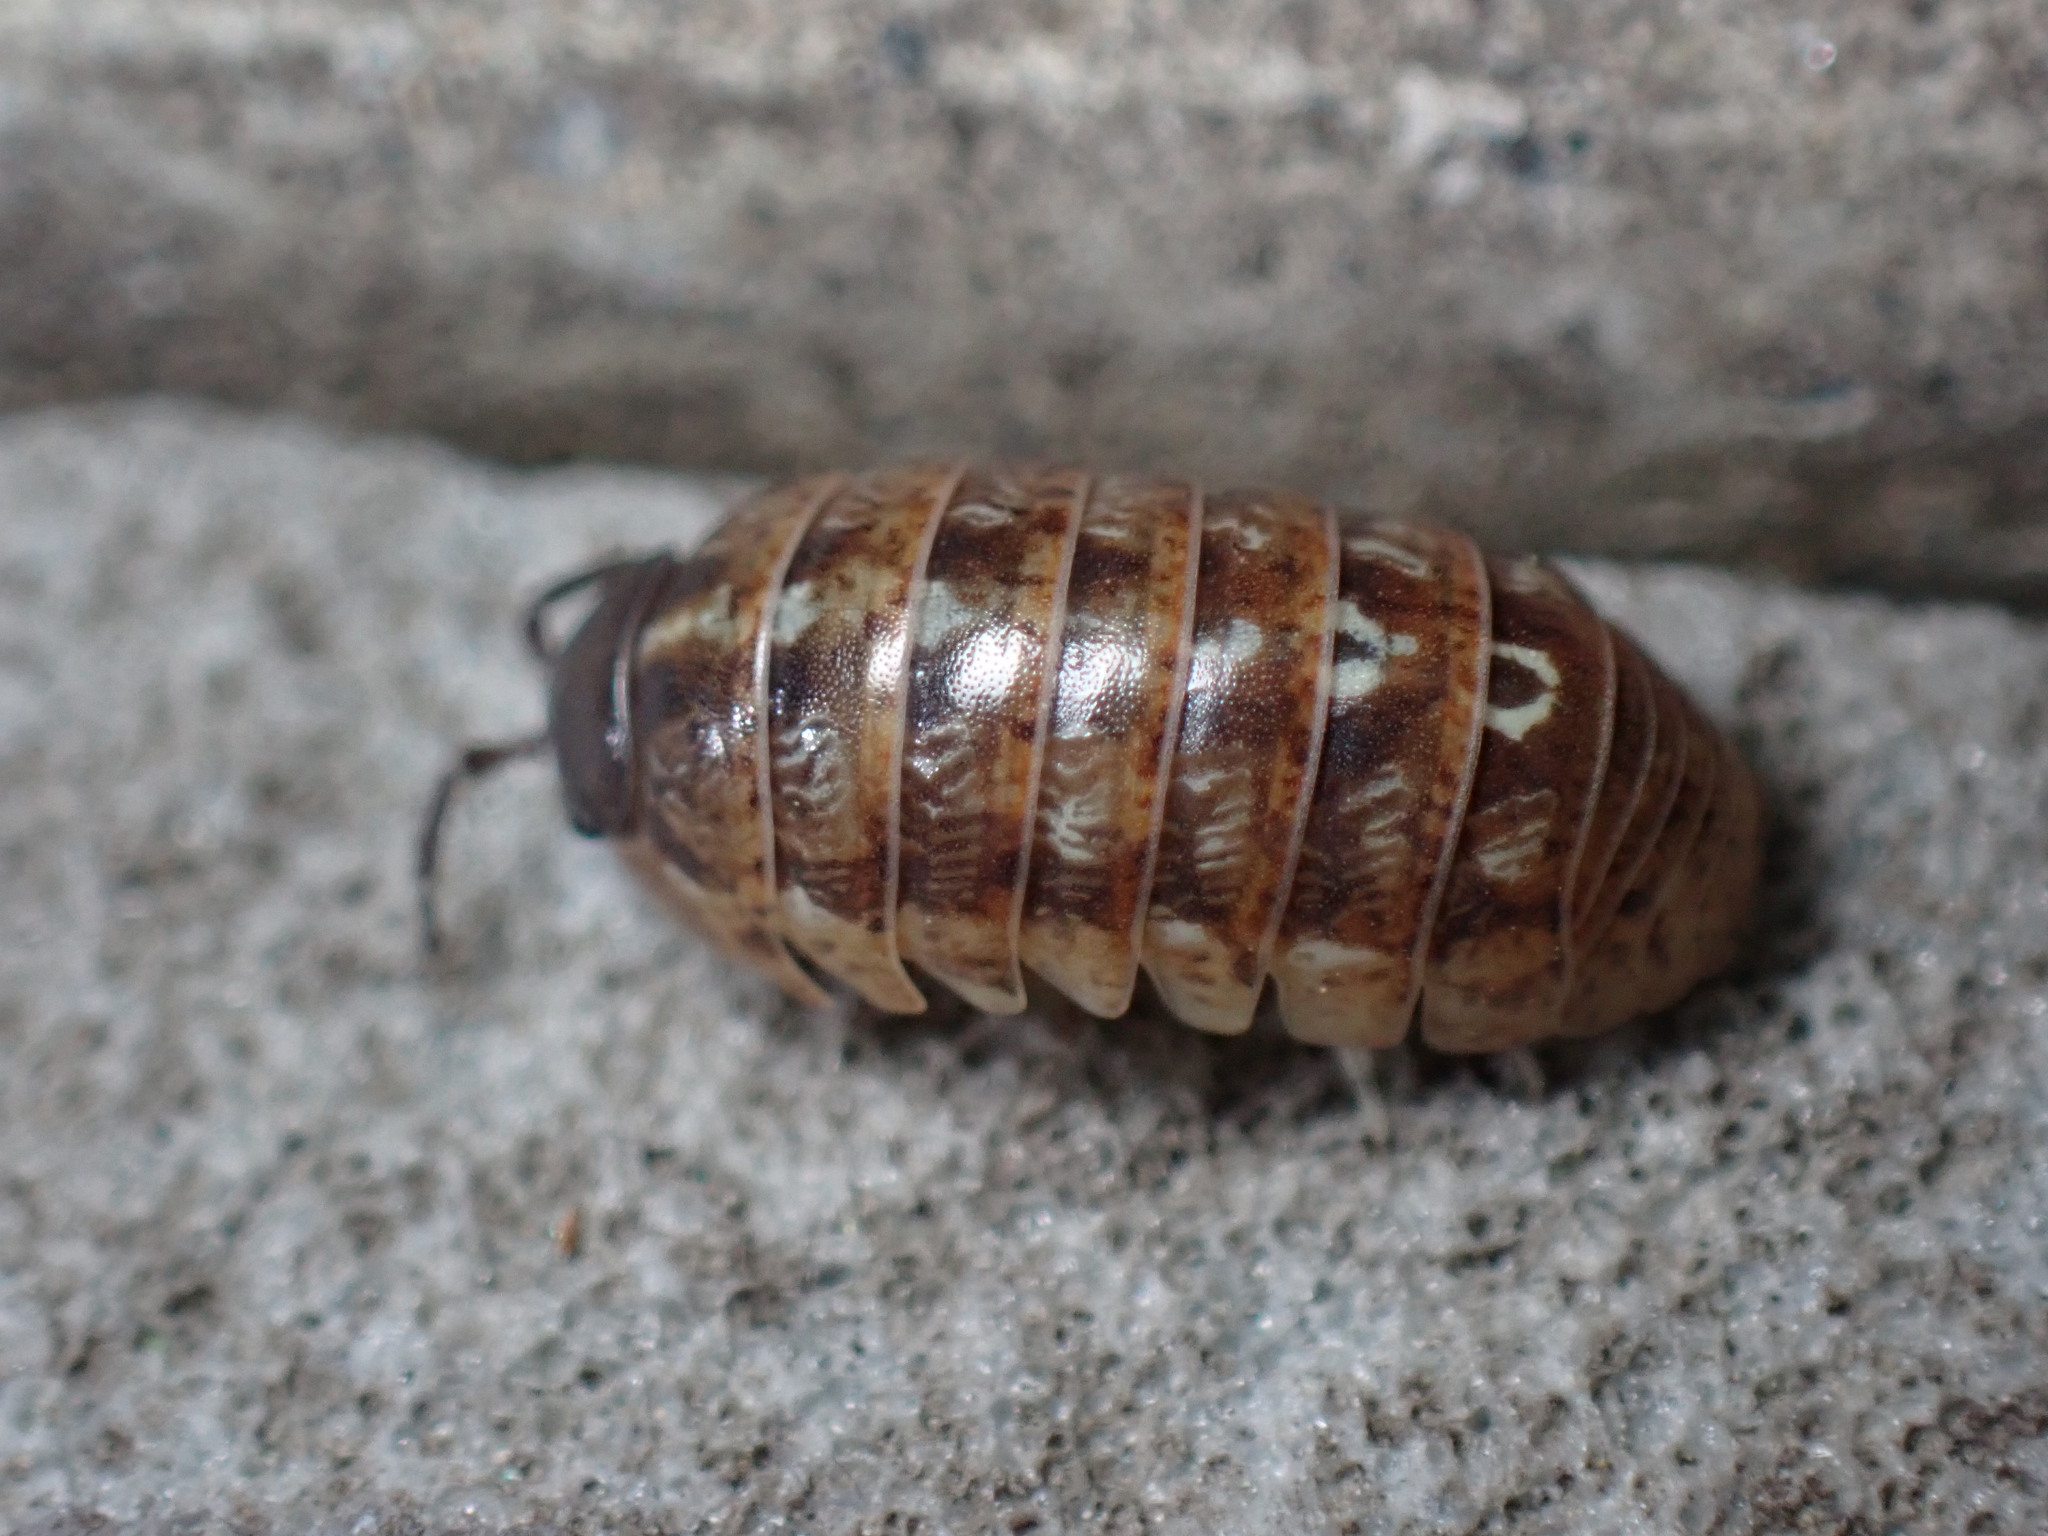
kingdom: Animalia
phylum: Arthropoda
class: Malacostraca
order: Isopoda
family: Armadillidiidae
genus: Armadillidium
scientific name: Armadillidium vulgare
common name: Common pill woodlouse
